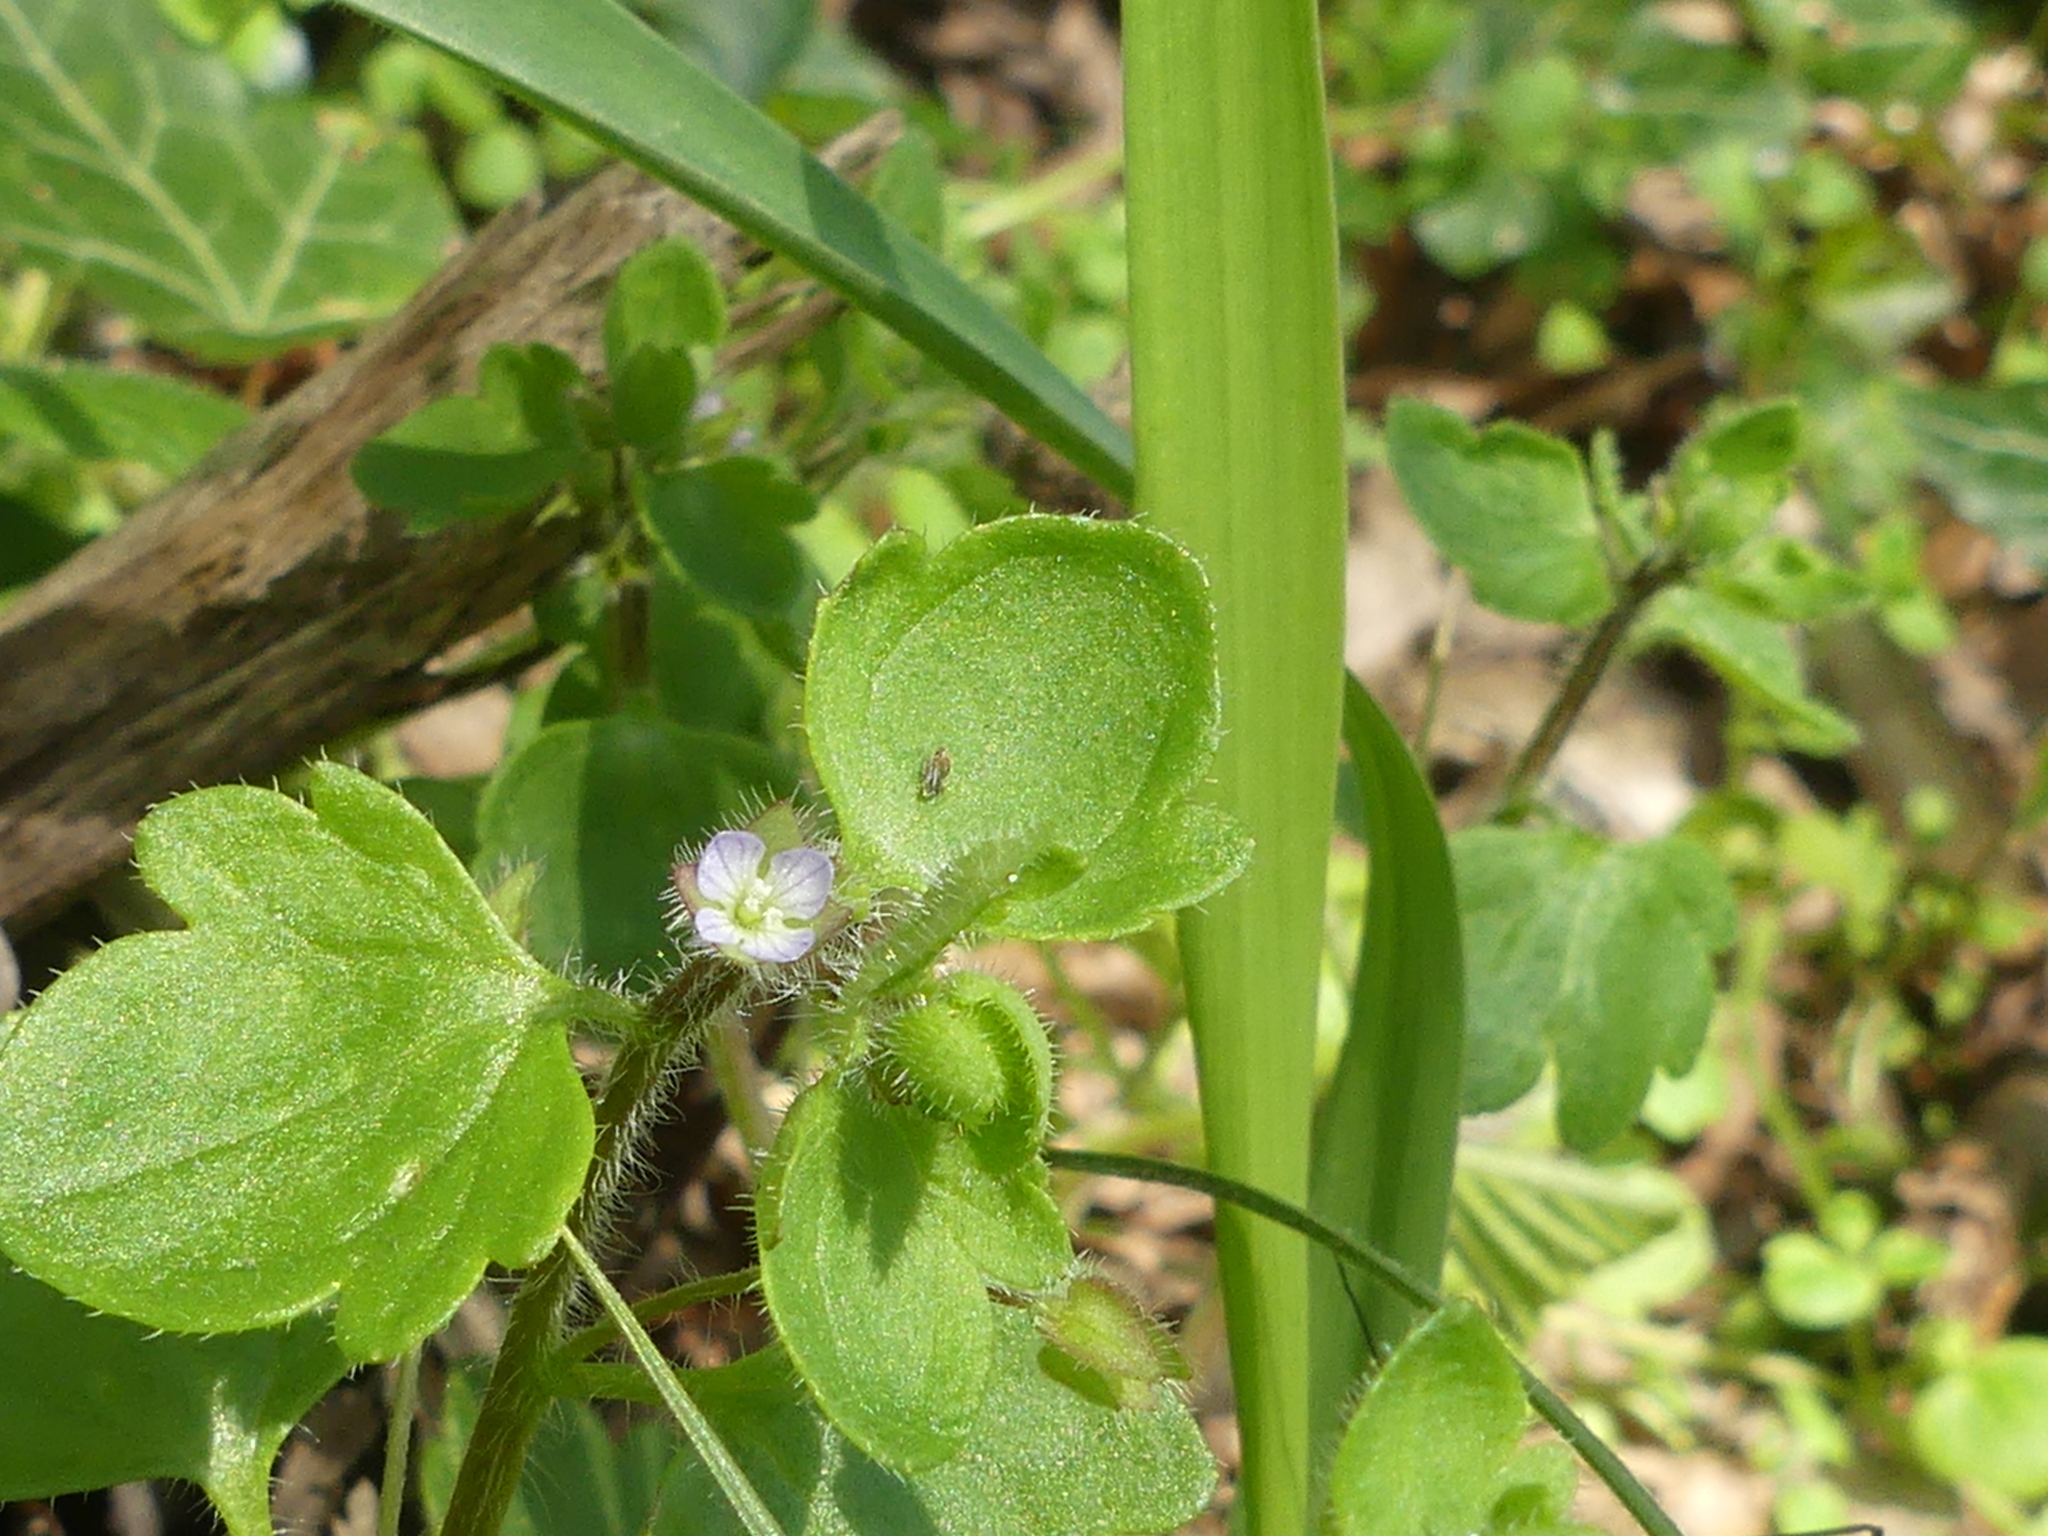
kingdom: Plantae
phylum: Tracheophyta
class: Magnoliopsida
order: Lamiales
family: Plantaginaceae
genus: Veronica
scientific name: Veronica sublobata
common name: False ivy-leaved speedwell
